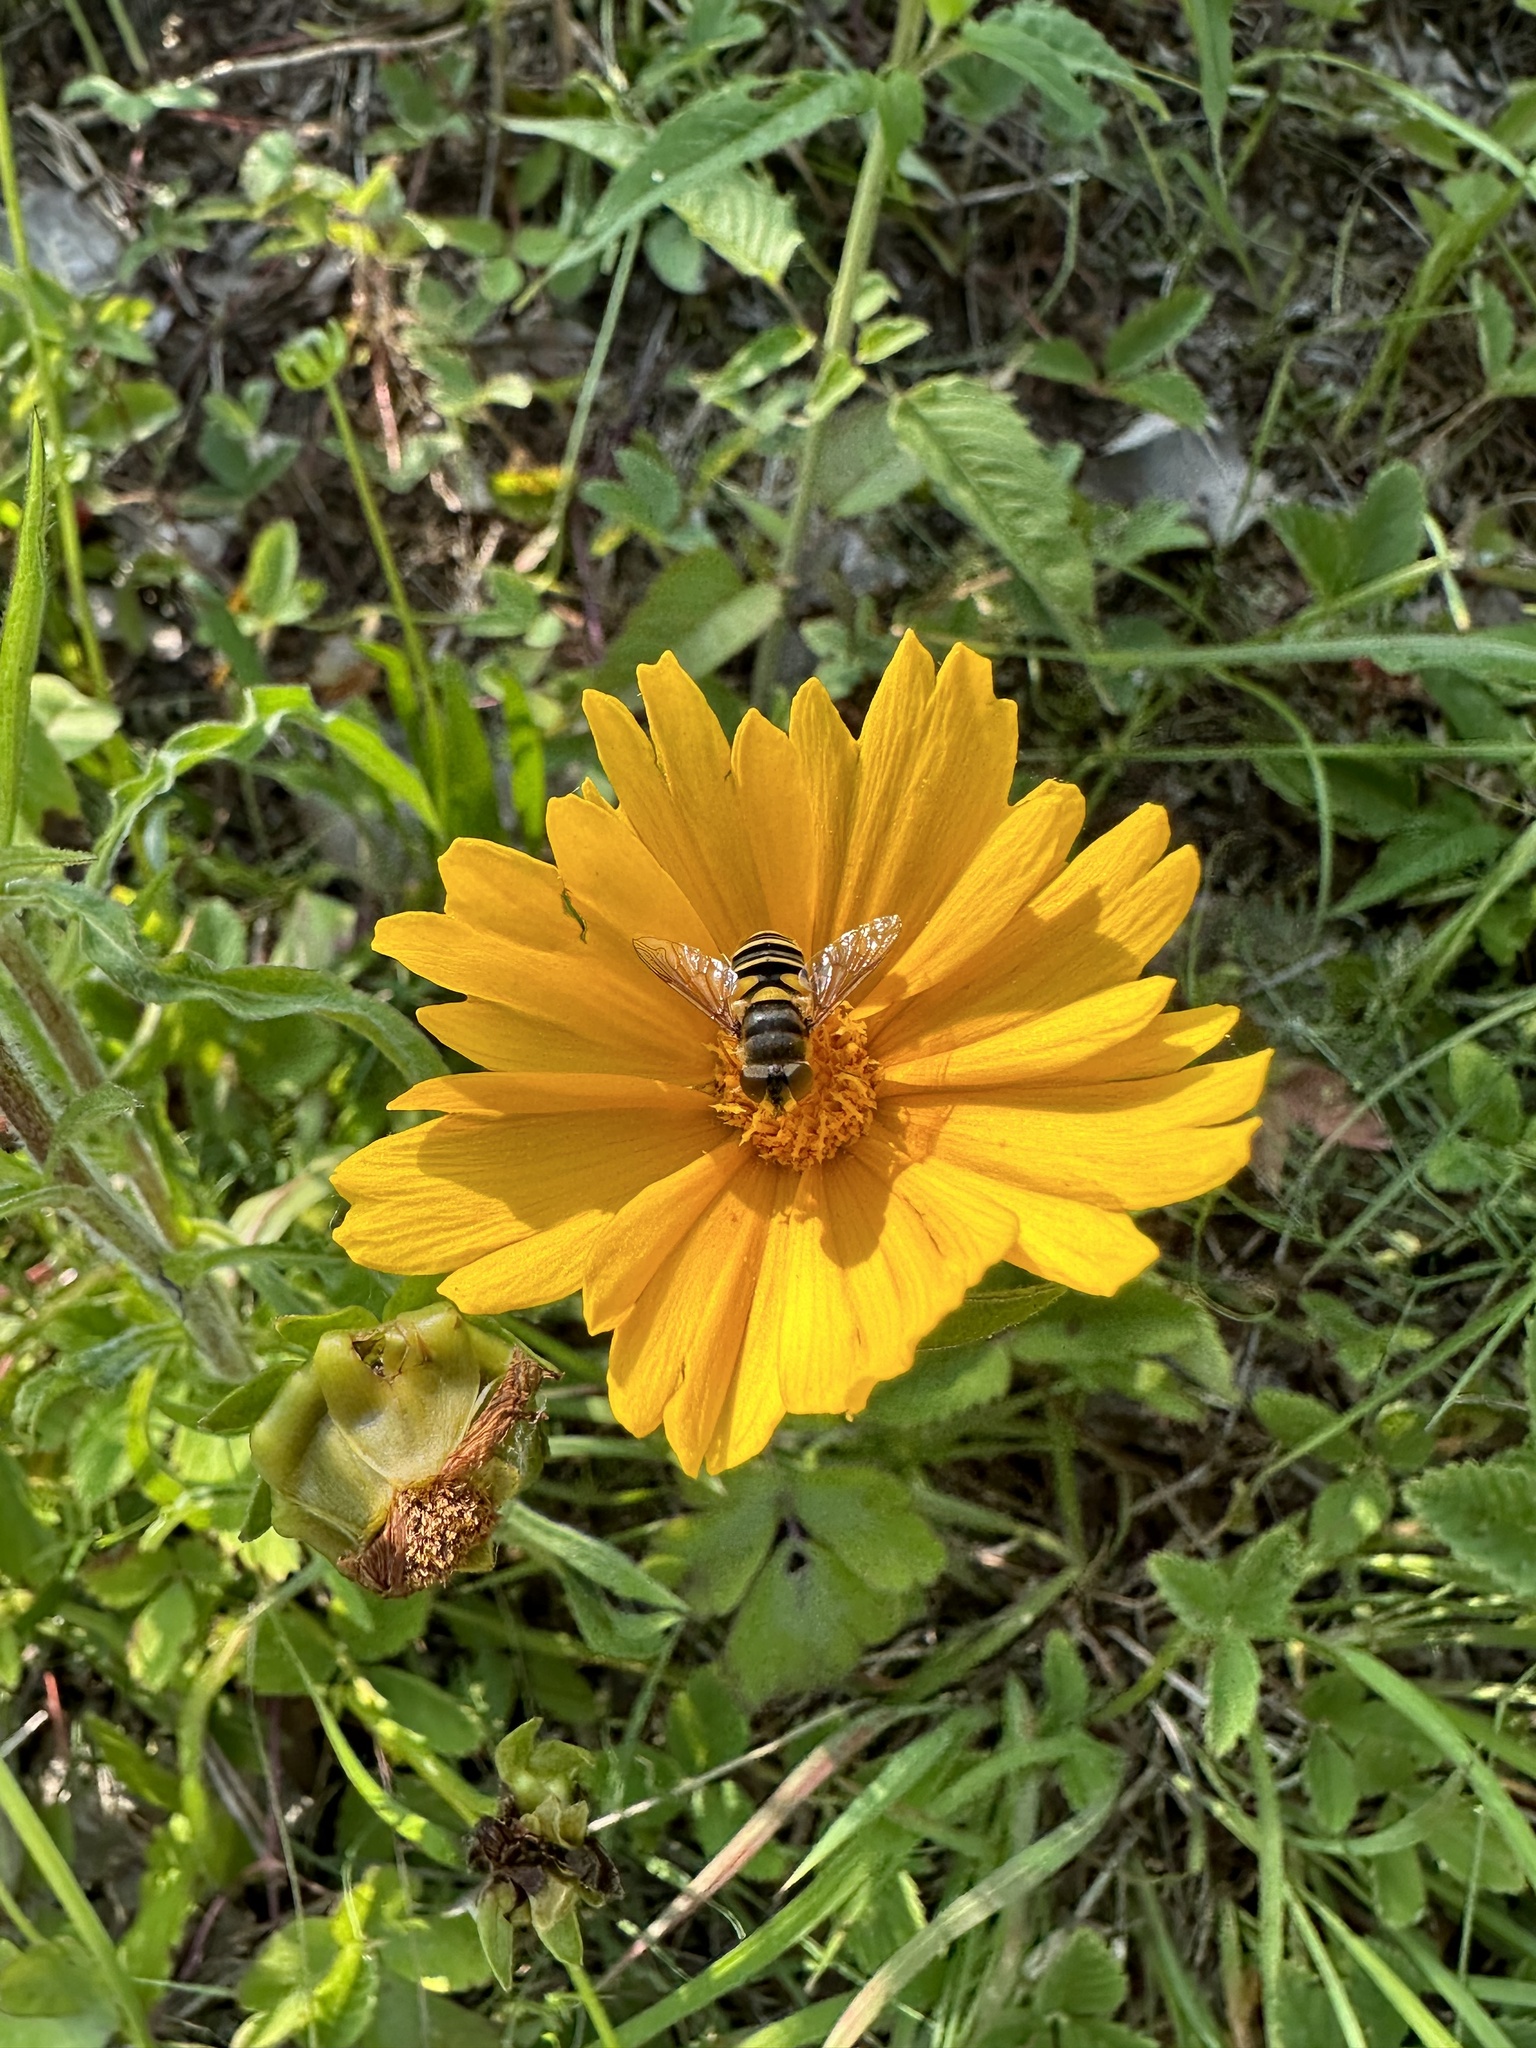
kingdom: Animalia
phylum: Arthropoda
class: Insecta
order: Diptera
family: Syrphidae
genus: Eristalis
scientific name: Eristalis transversa
